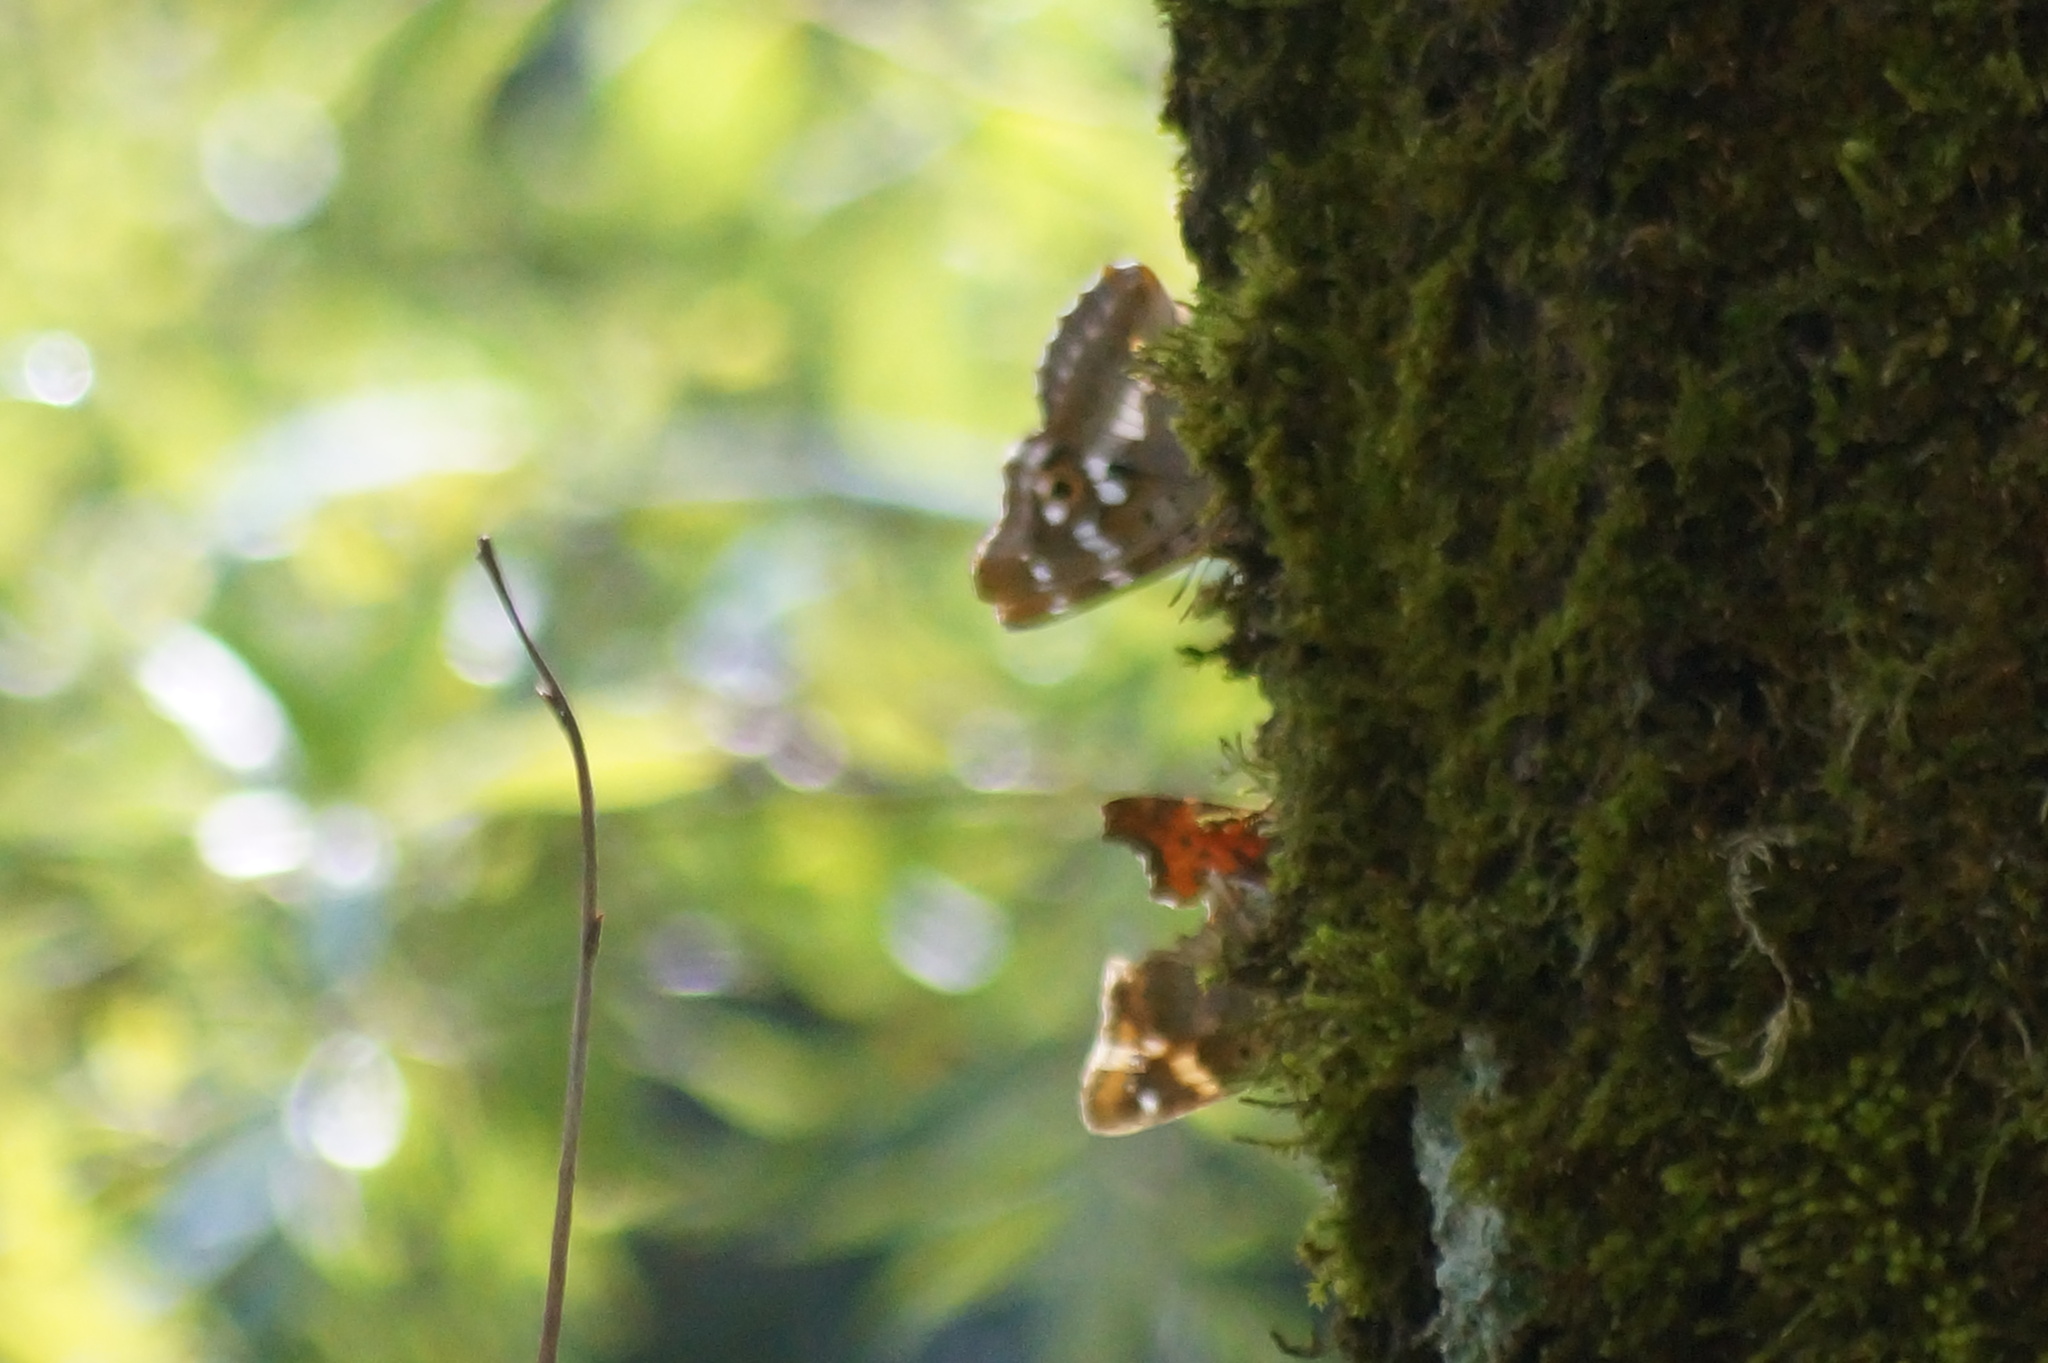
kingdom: Animalia
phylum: Arthropoda
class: Insecta
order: Lepidoptera
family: Nymphalidae
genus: Apatura
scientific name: Apatura ilia
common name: Lesser purple emperor
